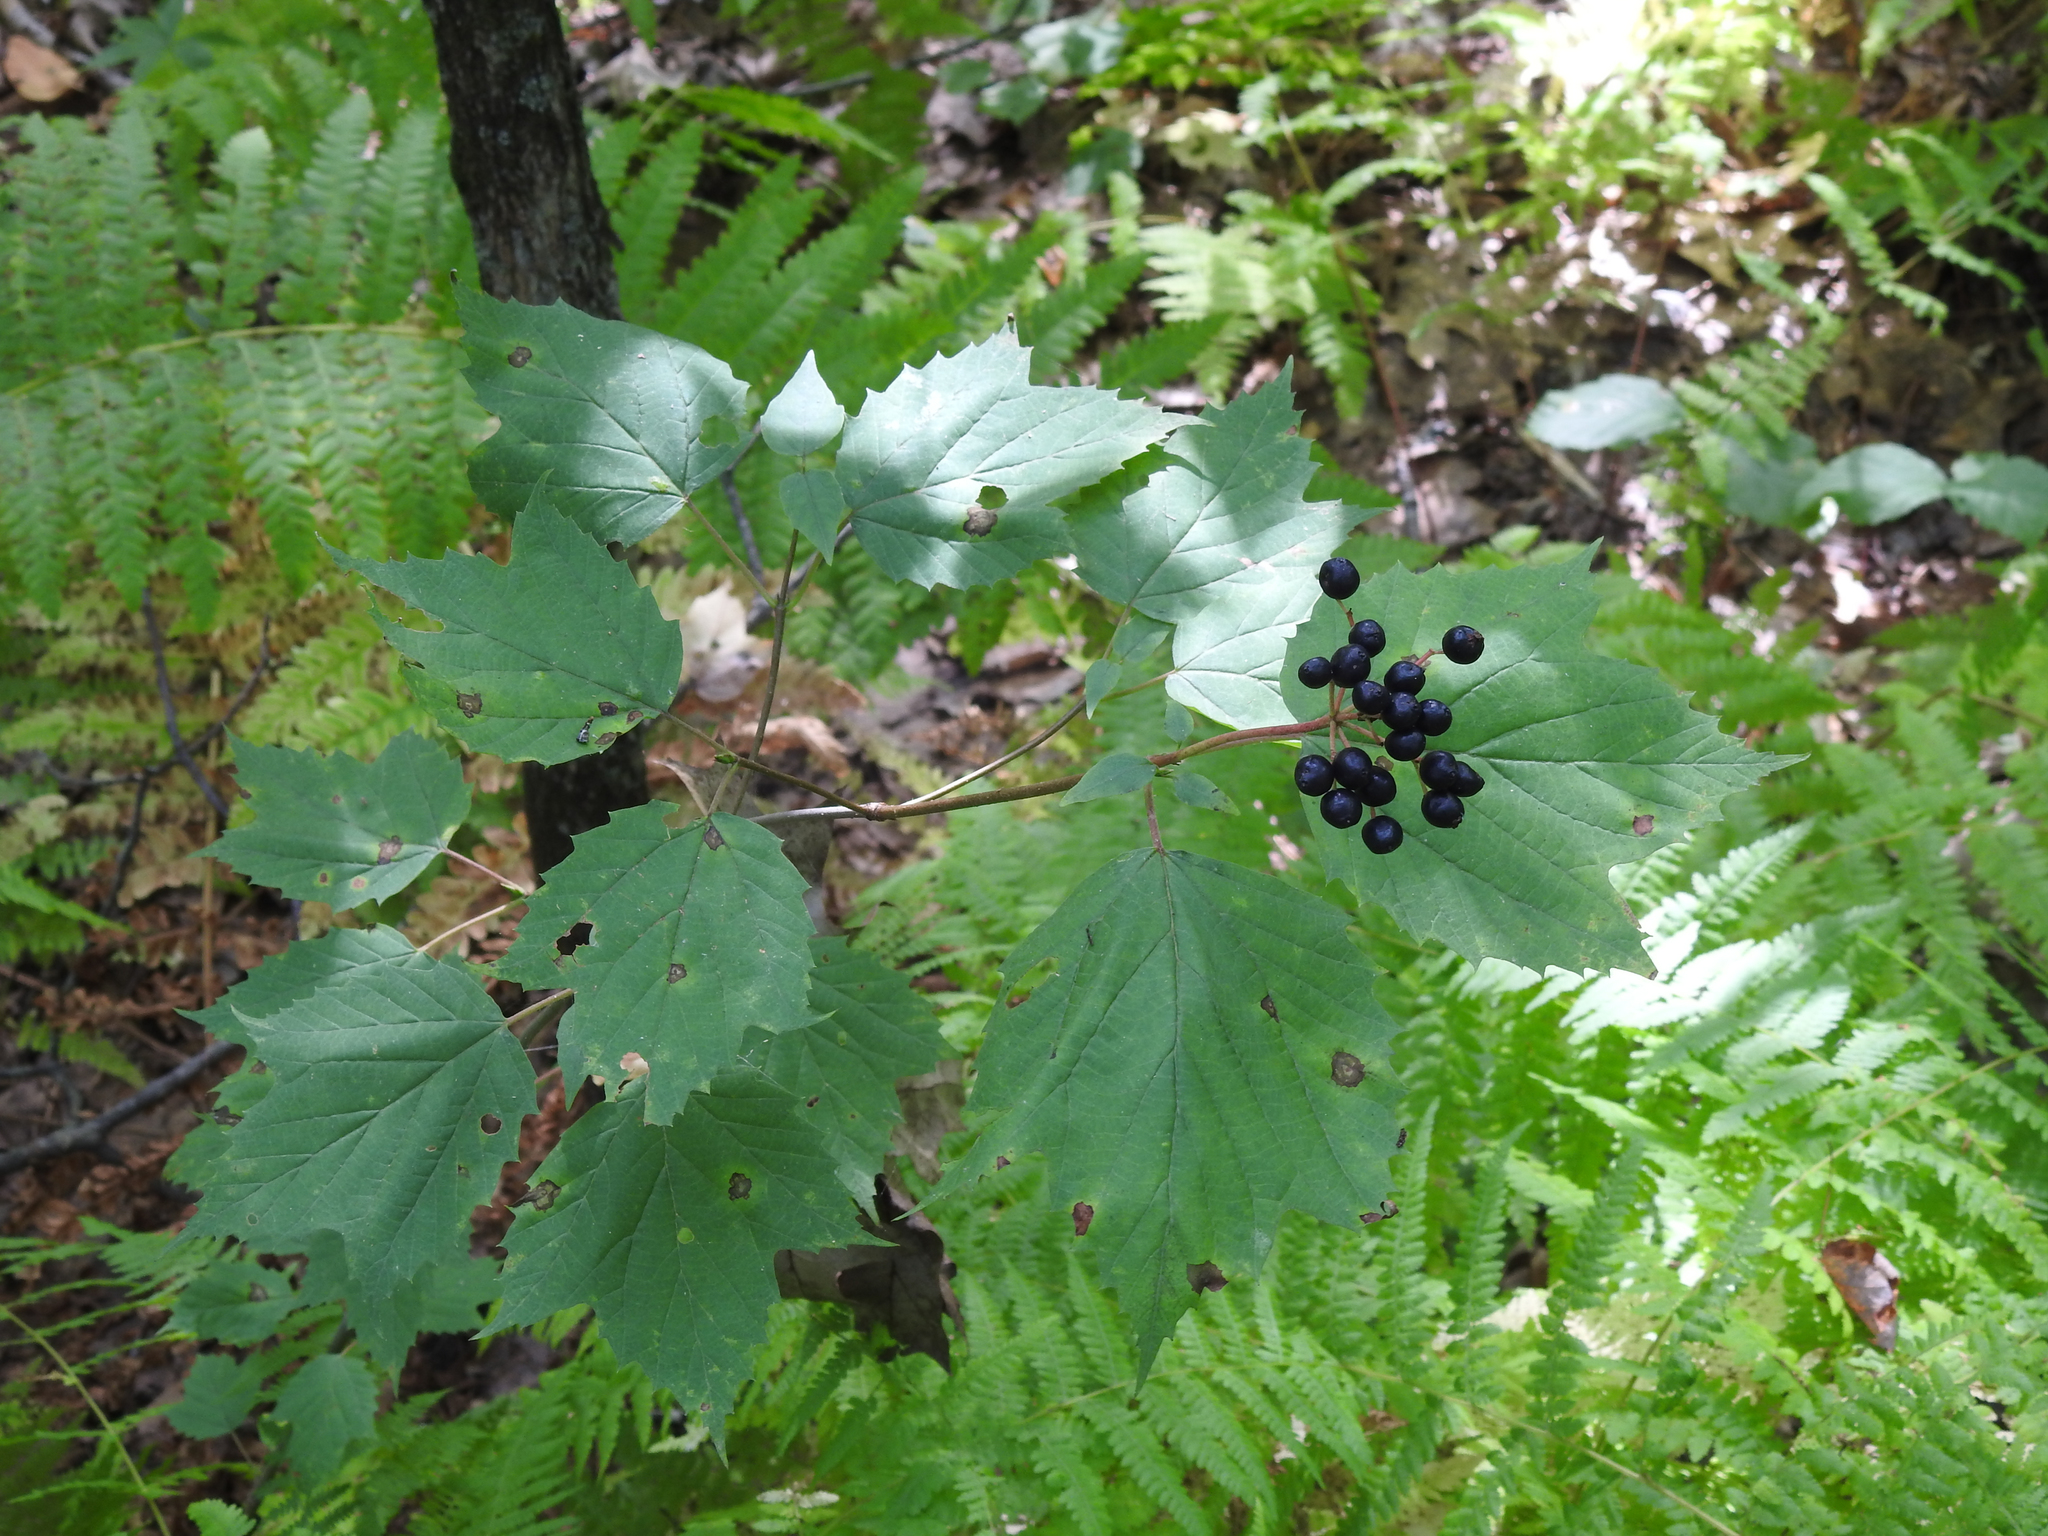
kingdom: Plantae
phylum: Tracheophyta
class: Magnoliopsida
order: Dipsacales
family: Viburnaceae
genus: Viburnum
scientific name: Viburnum acerifolium
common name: Dockmackie
